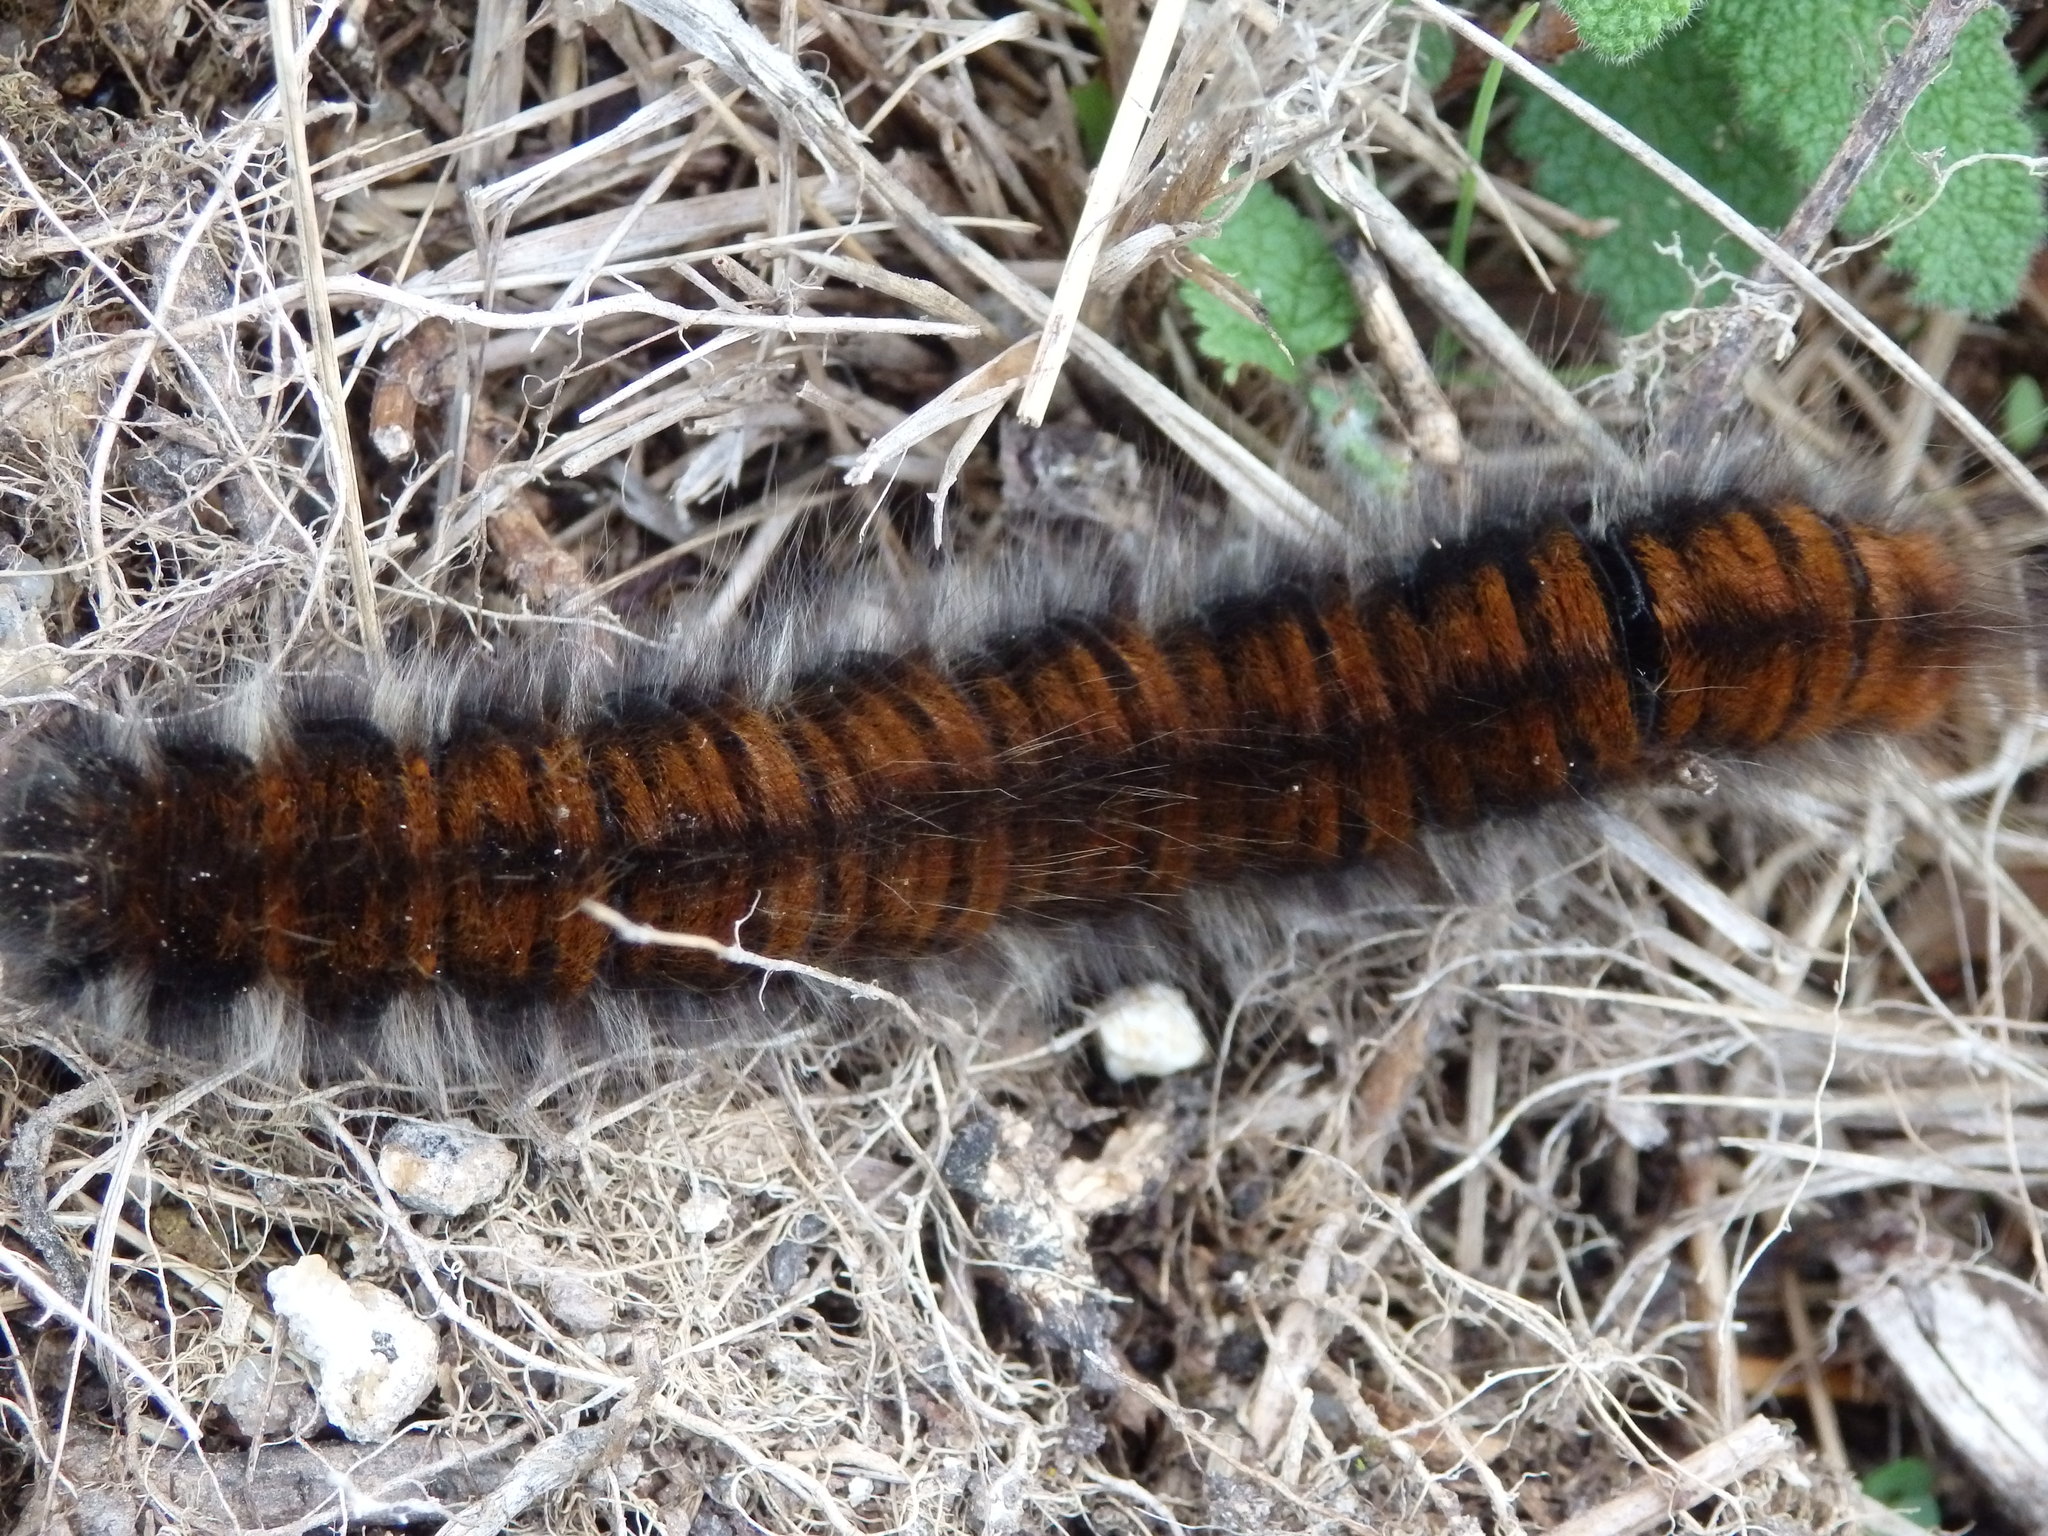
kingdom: Animalia
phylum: Arthropoda
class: Insecta
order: Lepidoptera
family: Lasiocampidae
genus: Macrothylacia
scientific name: Macrothylacia rubi
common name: Fox moth
